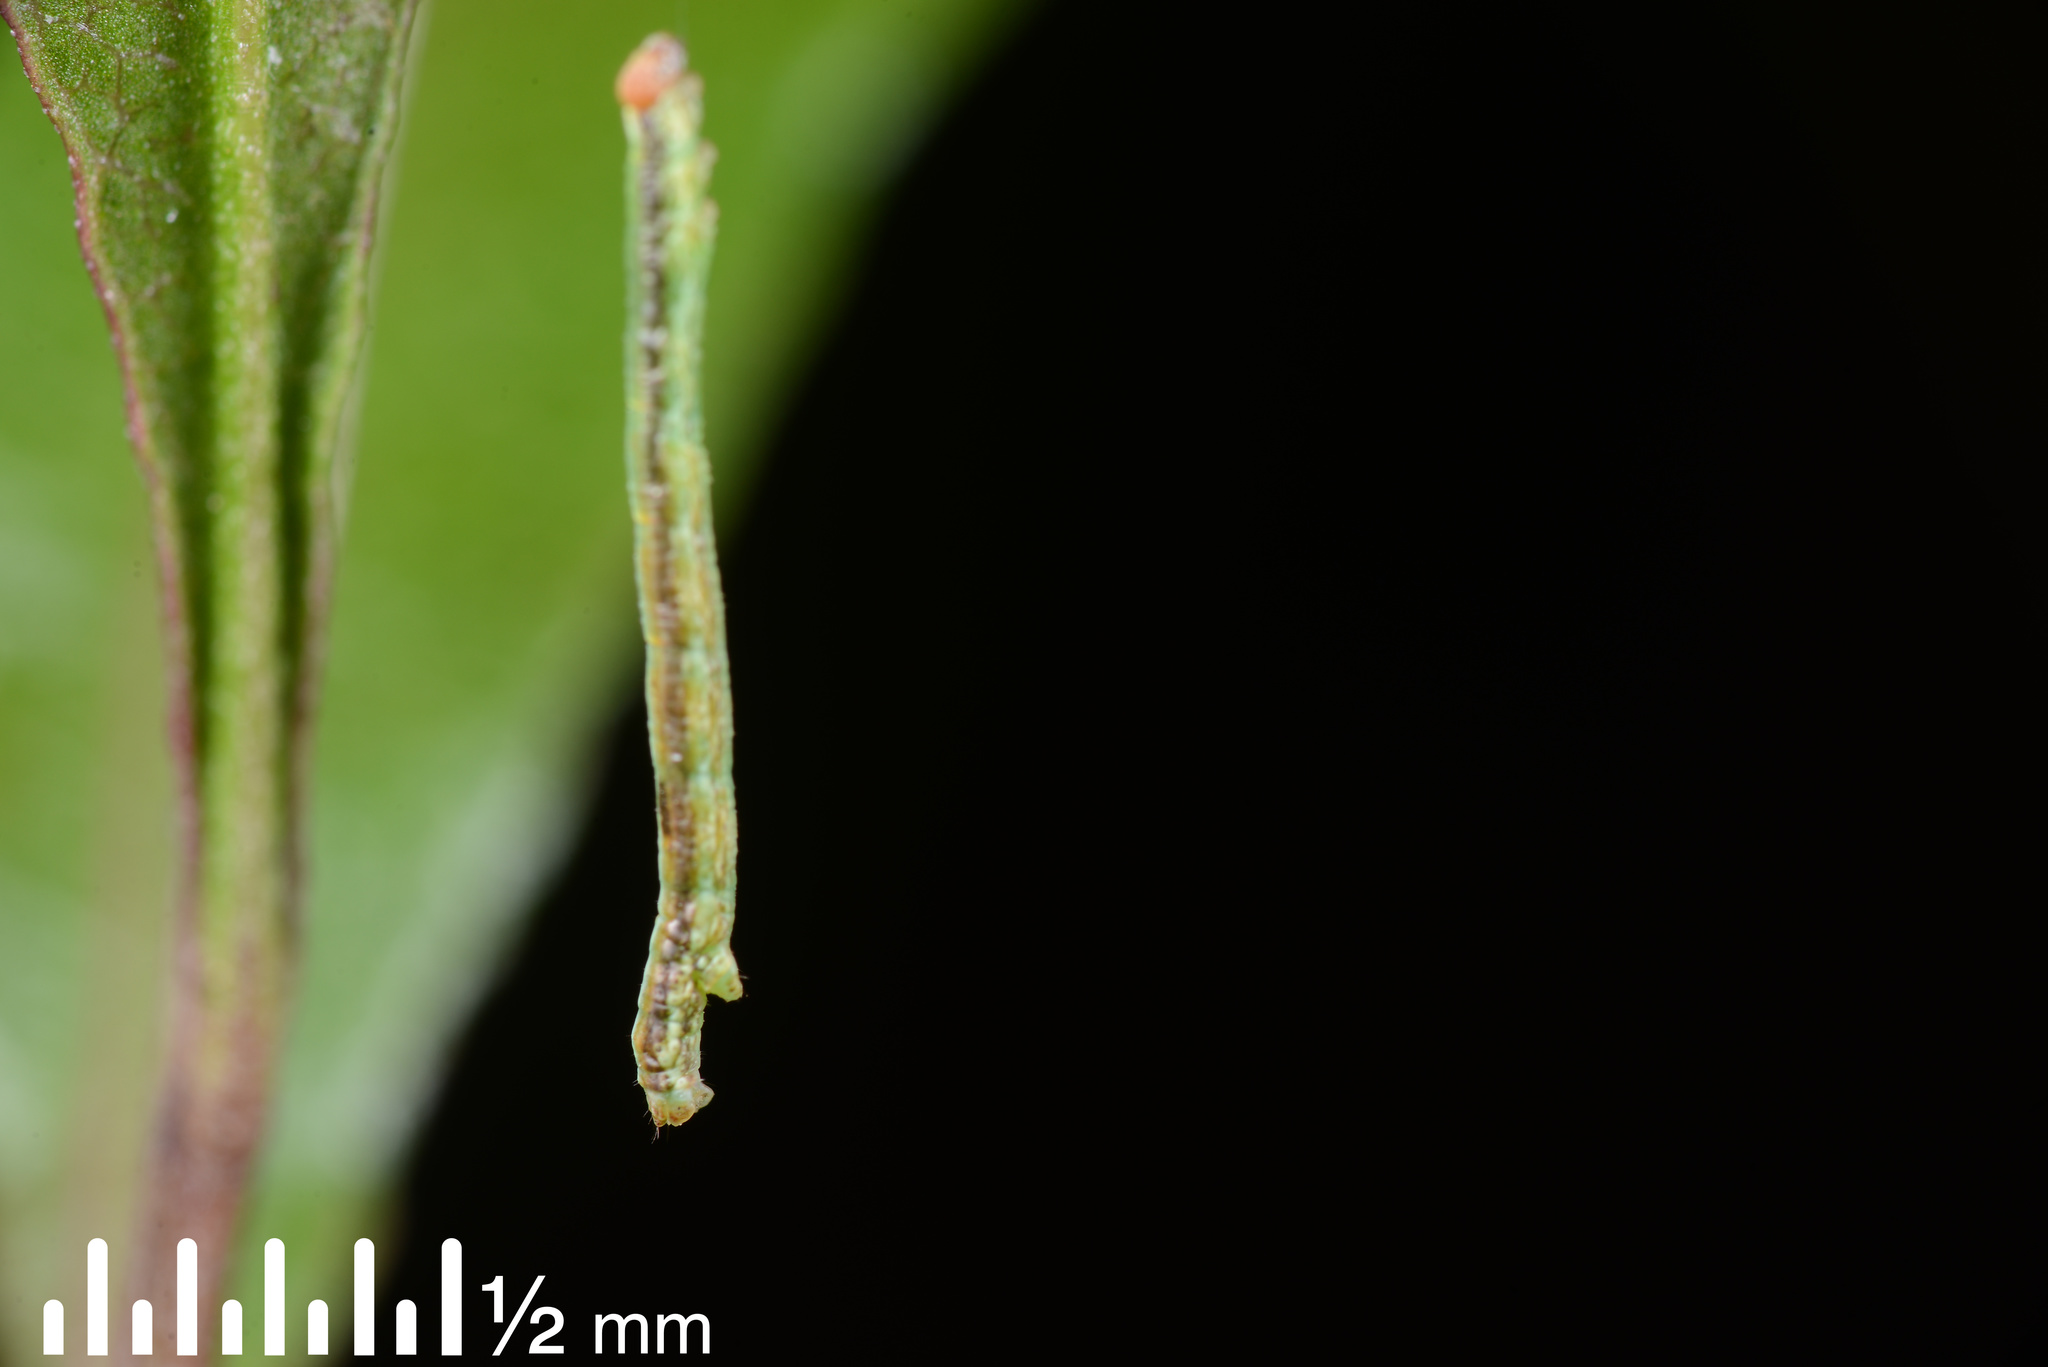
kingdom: Animalia
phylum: Arthropoda
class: Insecta
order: Lepidoptera
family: Geometridae
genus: Cleora
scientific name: Cleora scriptaria
